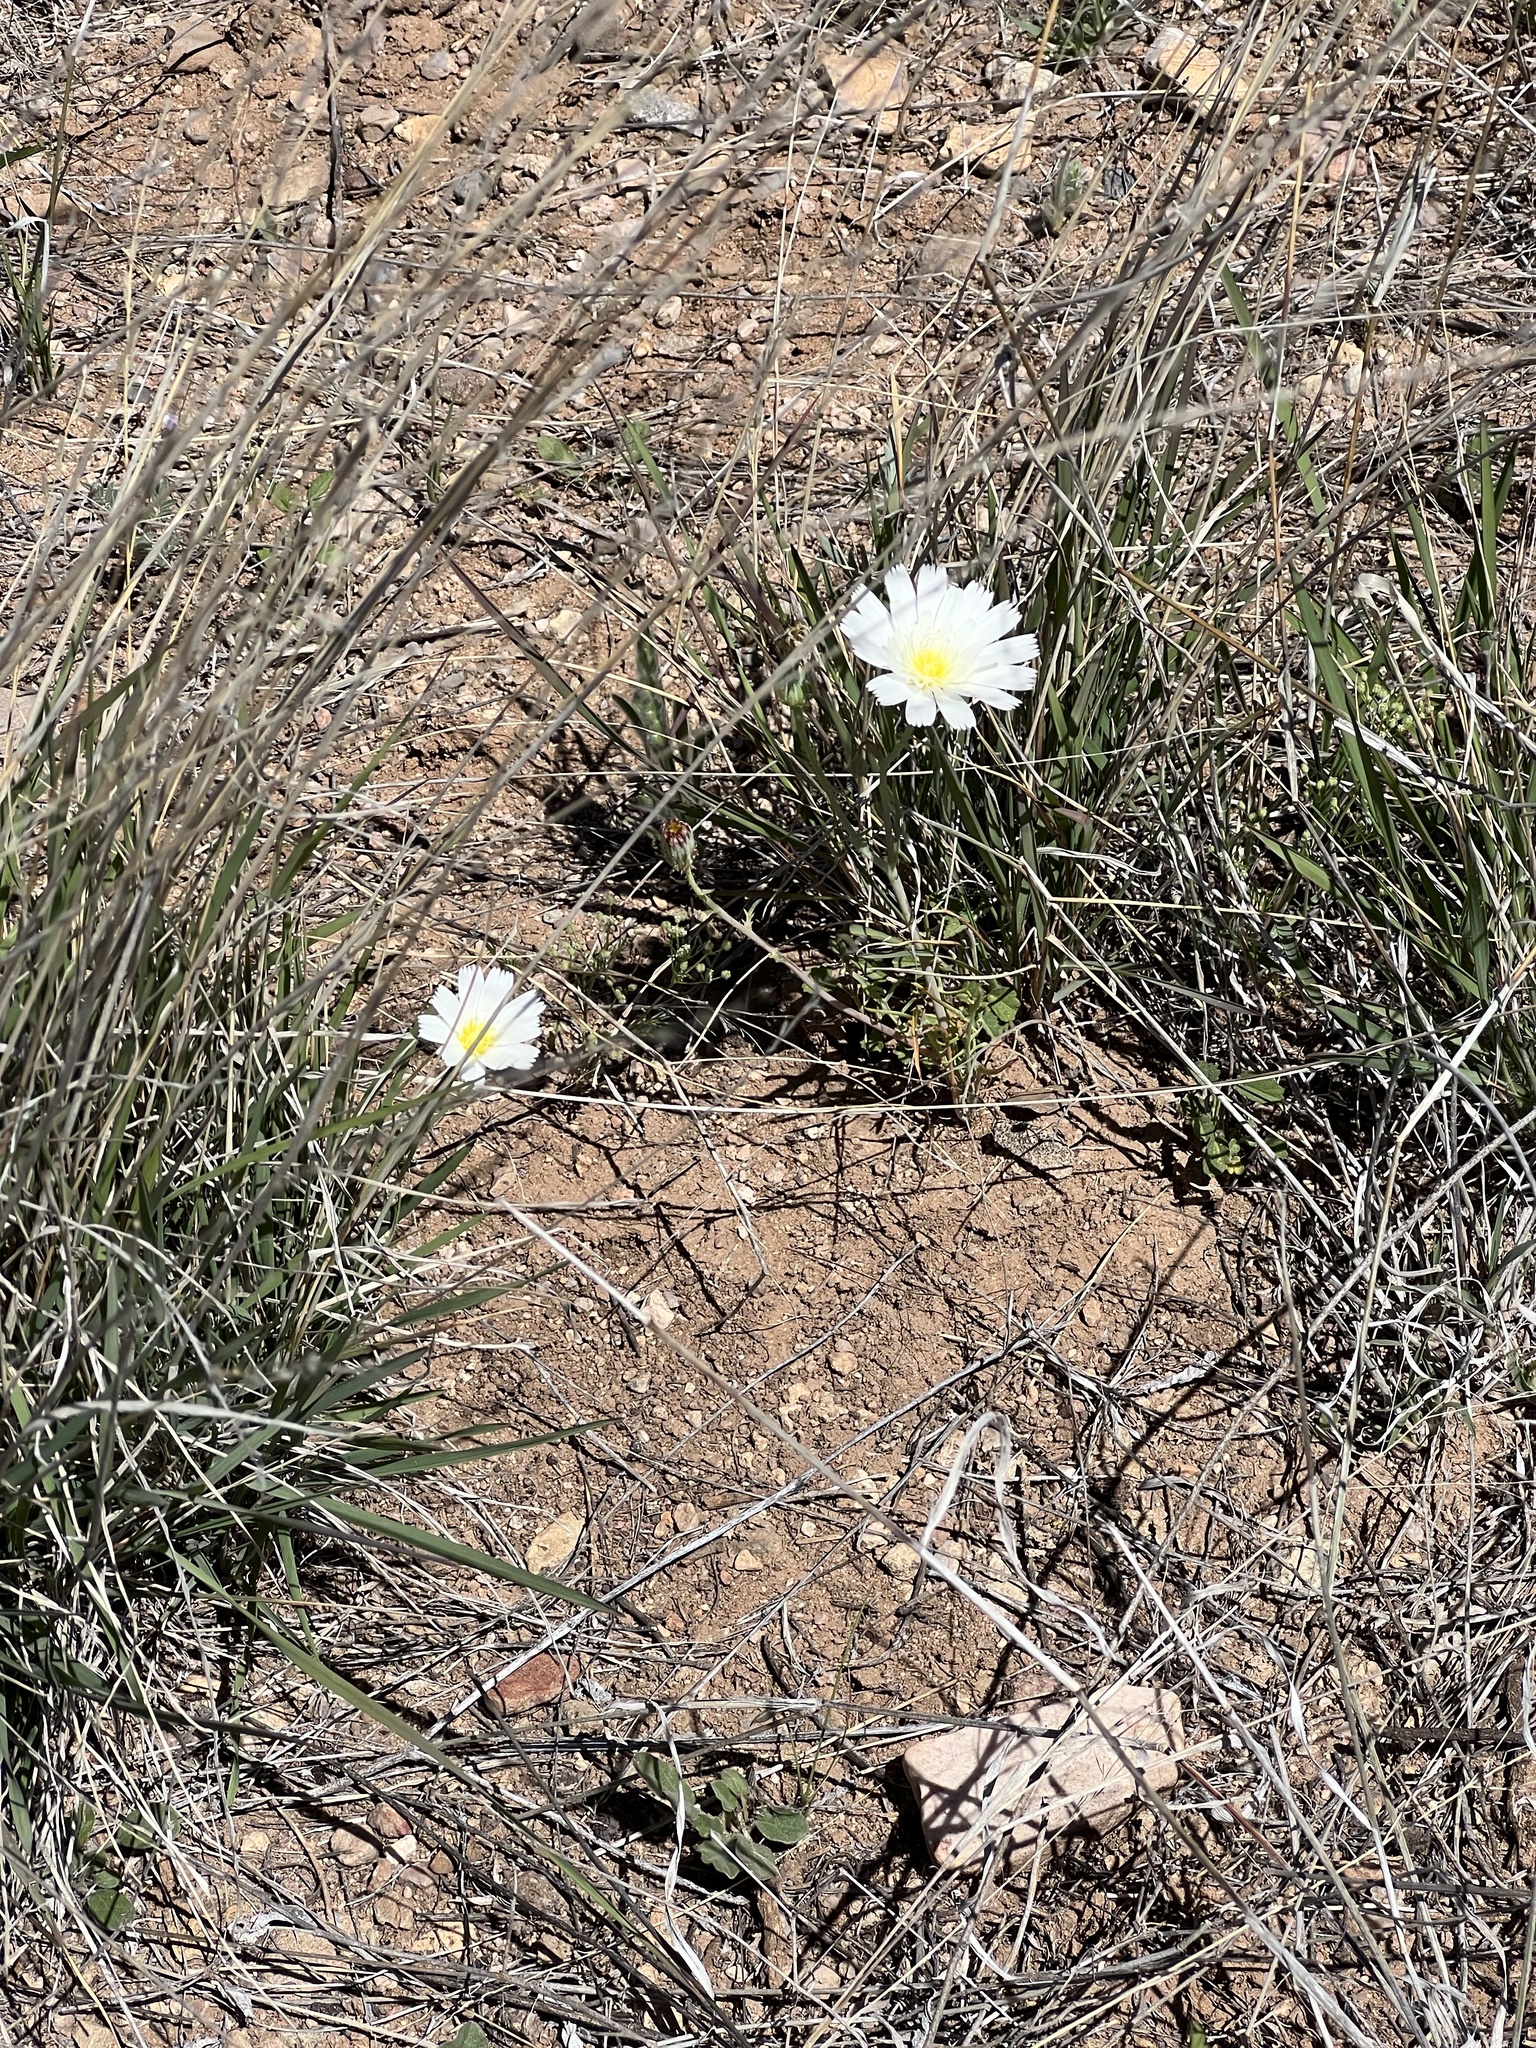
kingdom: Plantae
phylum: Tracheophyta
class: Magnoliopsida
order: Asterales
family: Asteraceae
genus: Calycoseris
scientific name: Calycoseris wrightii
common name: White tackstem
